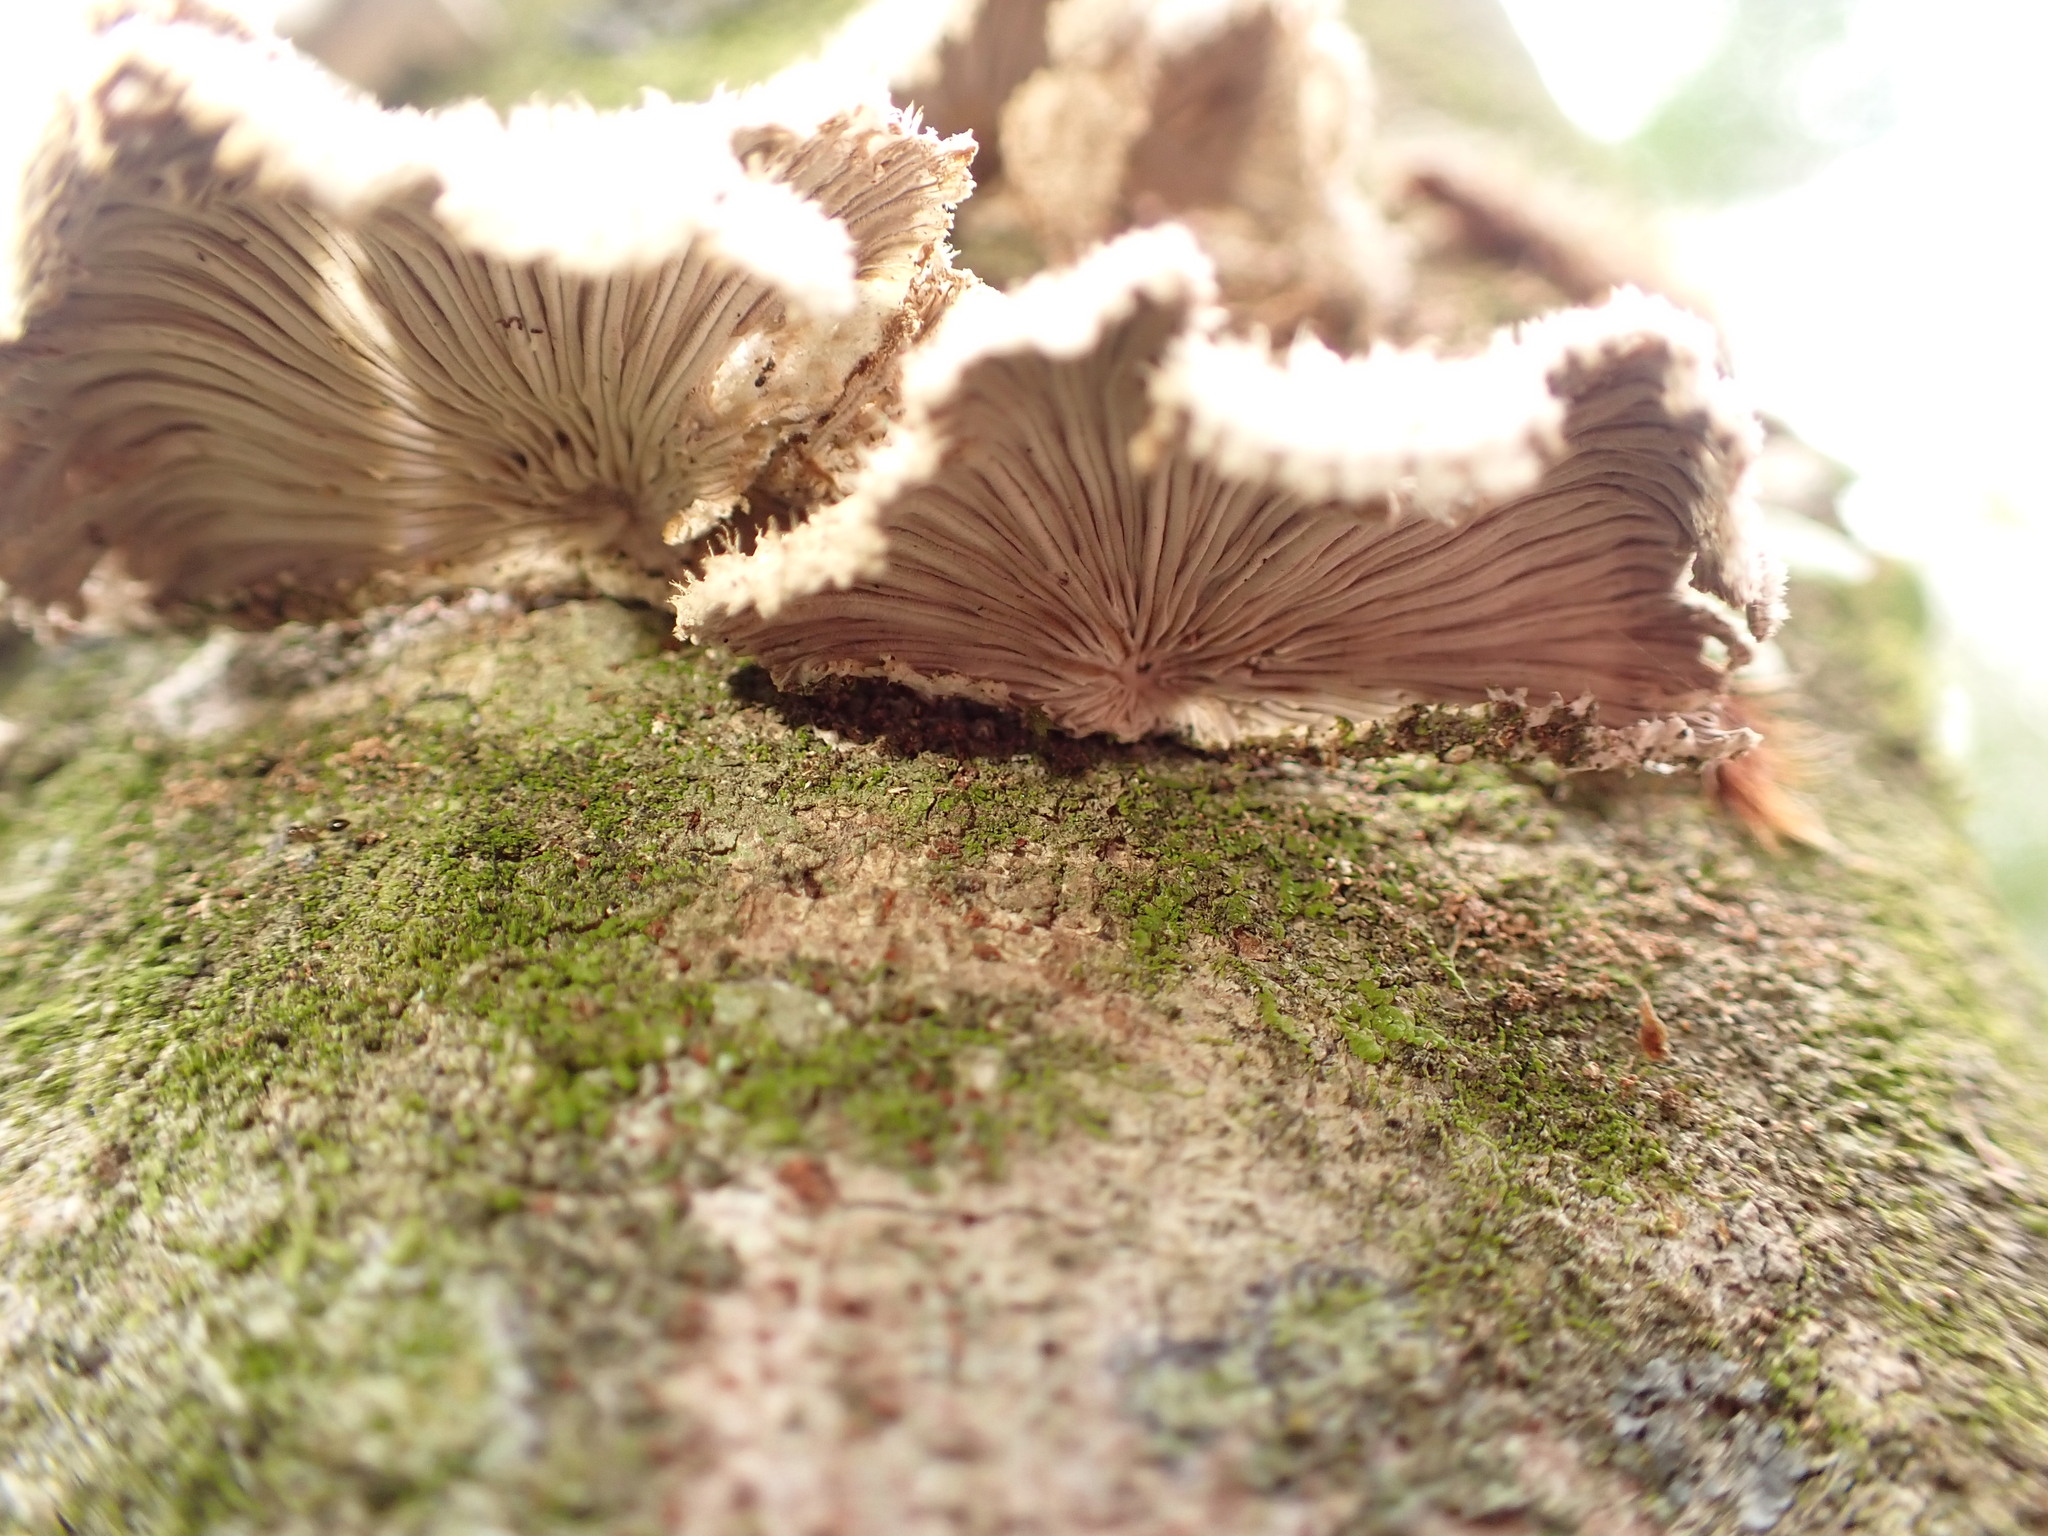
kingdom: Fungi
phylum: Basidiomycota
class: Agaricomycetes
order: Agaricales
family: Schizophyllaceae
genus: Schizophyllum
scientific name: Schizophyllum commune
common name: Common porecrust
